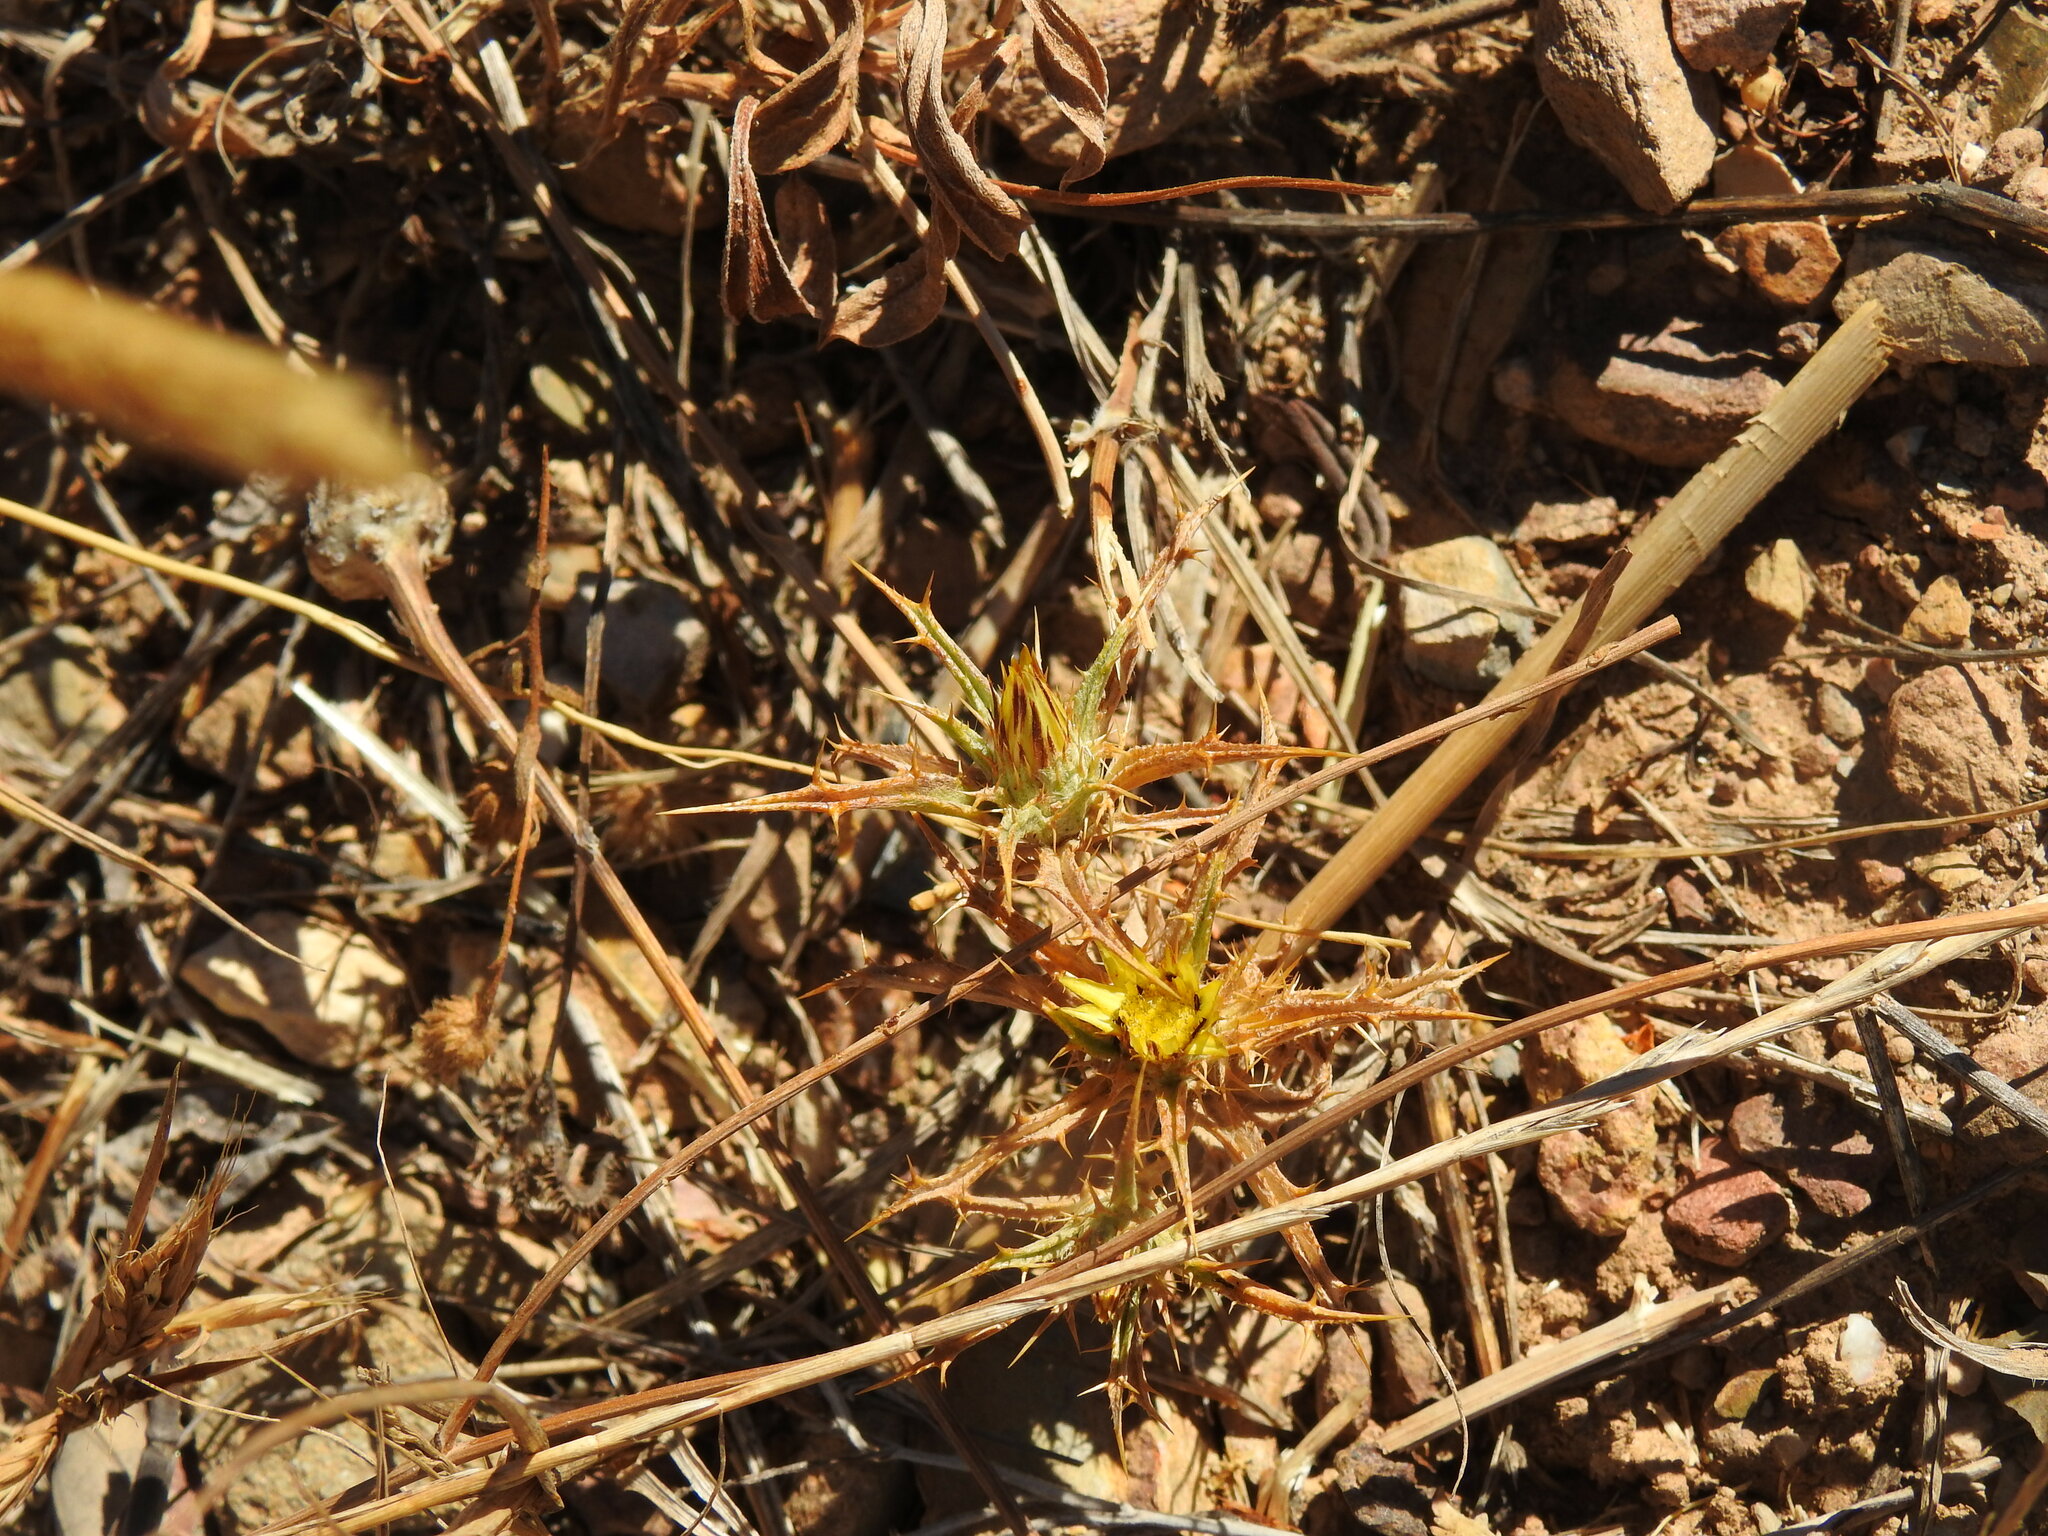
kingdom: Plantae
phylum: Tracheophyta
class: Magnoliopsida
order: Asterales
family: Asteraceae
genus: Carlina
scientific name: Carlina racemosa
